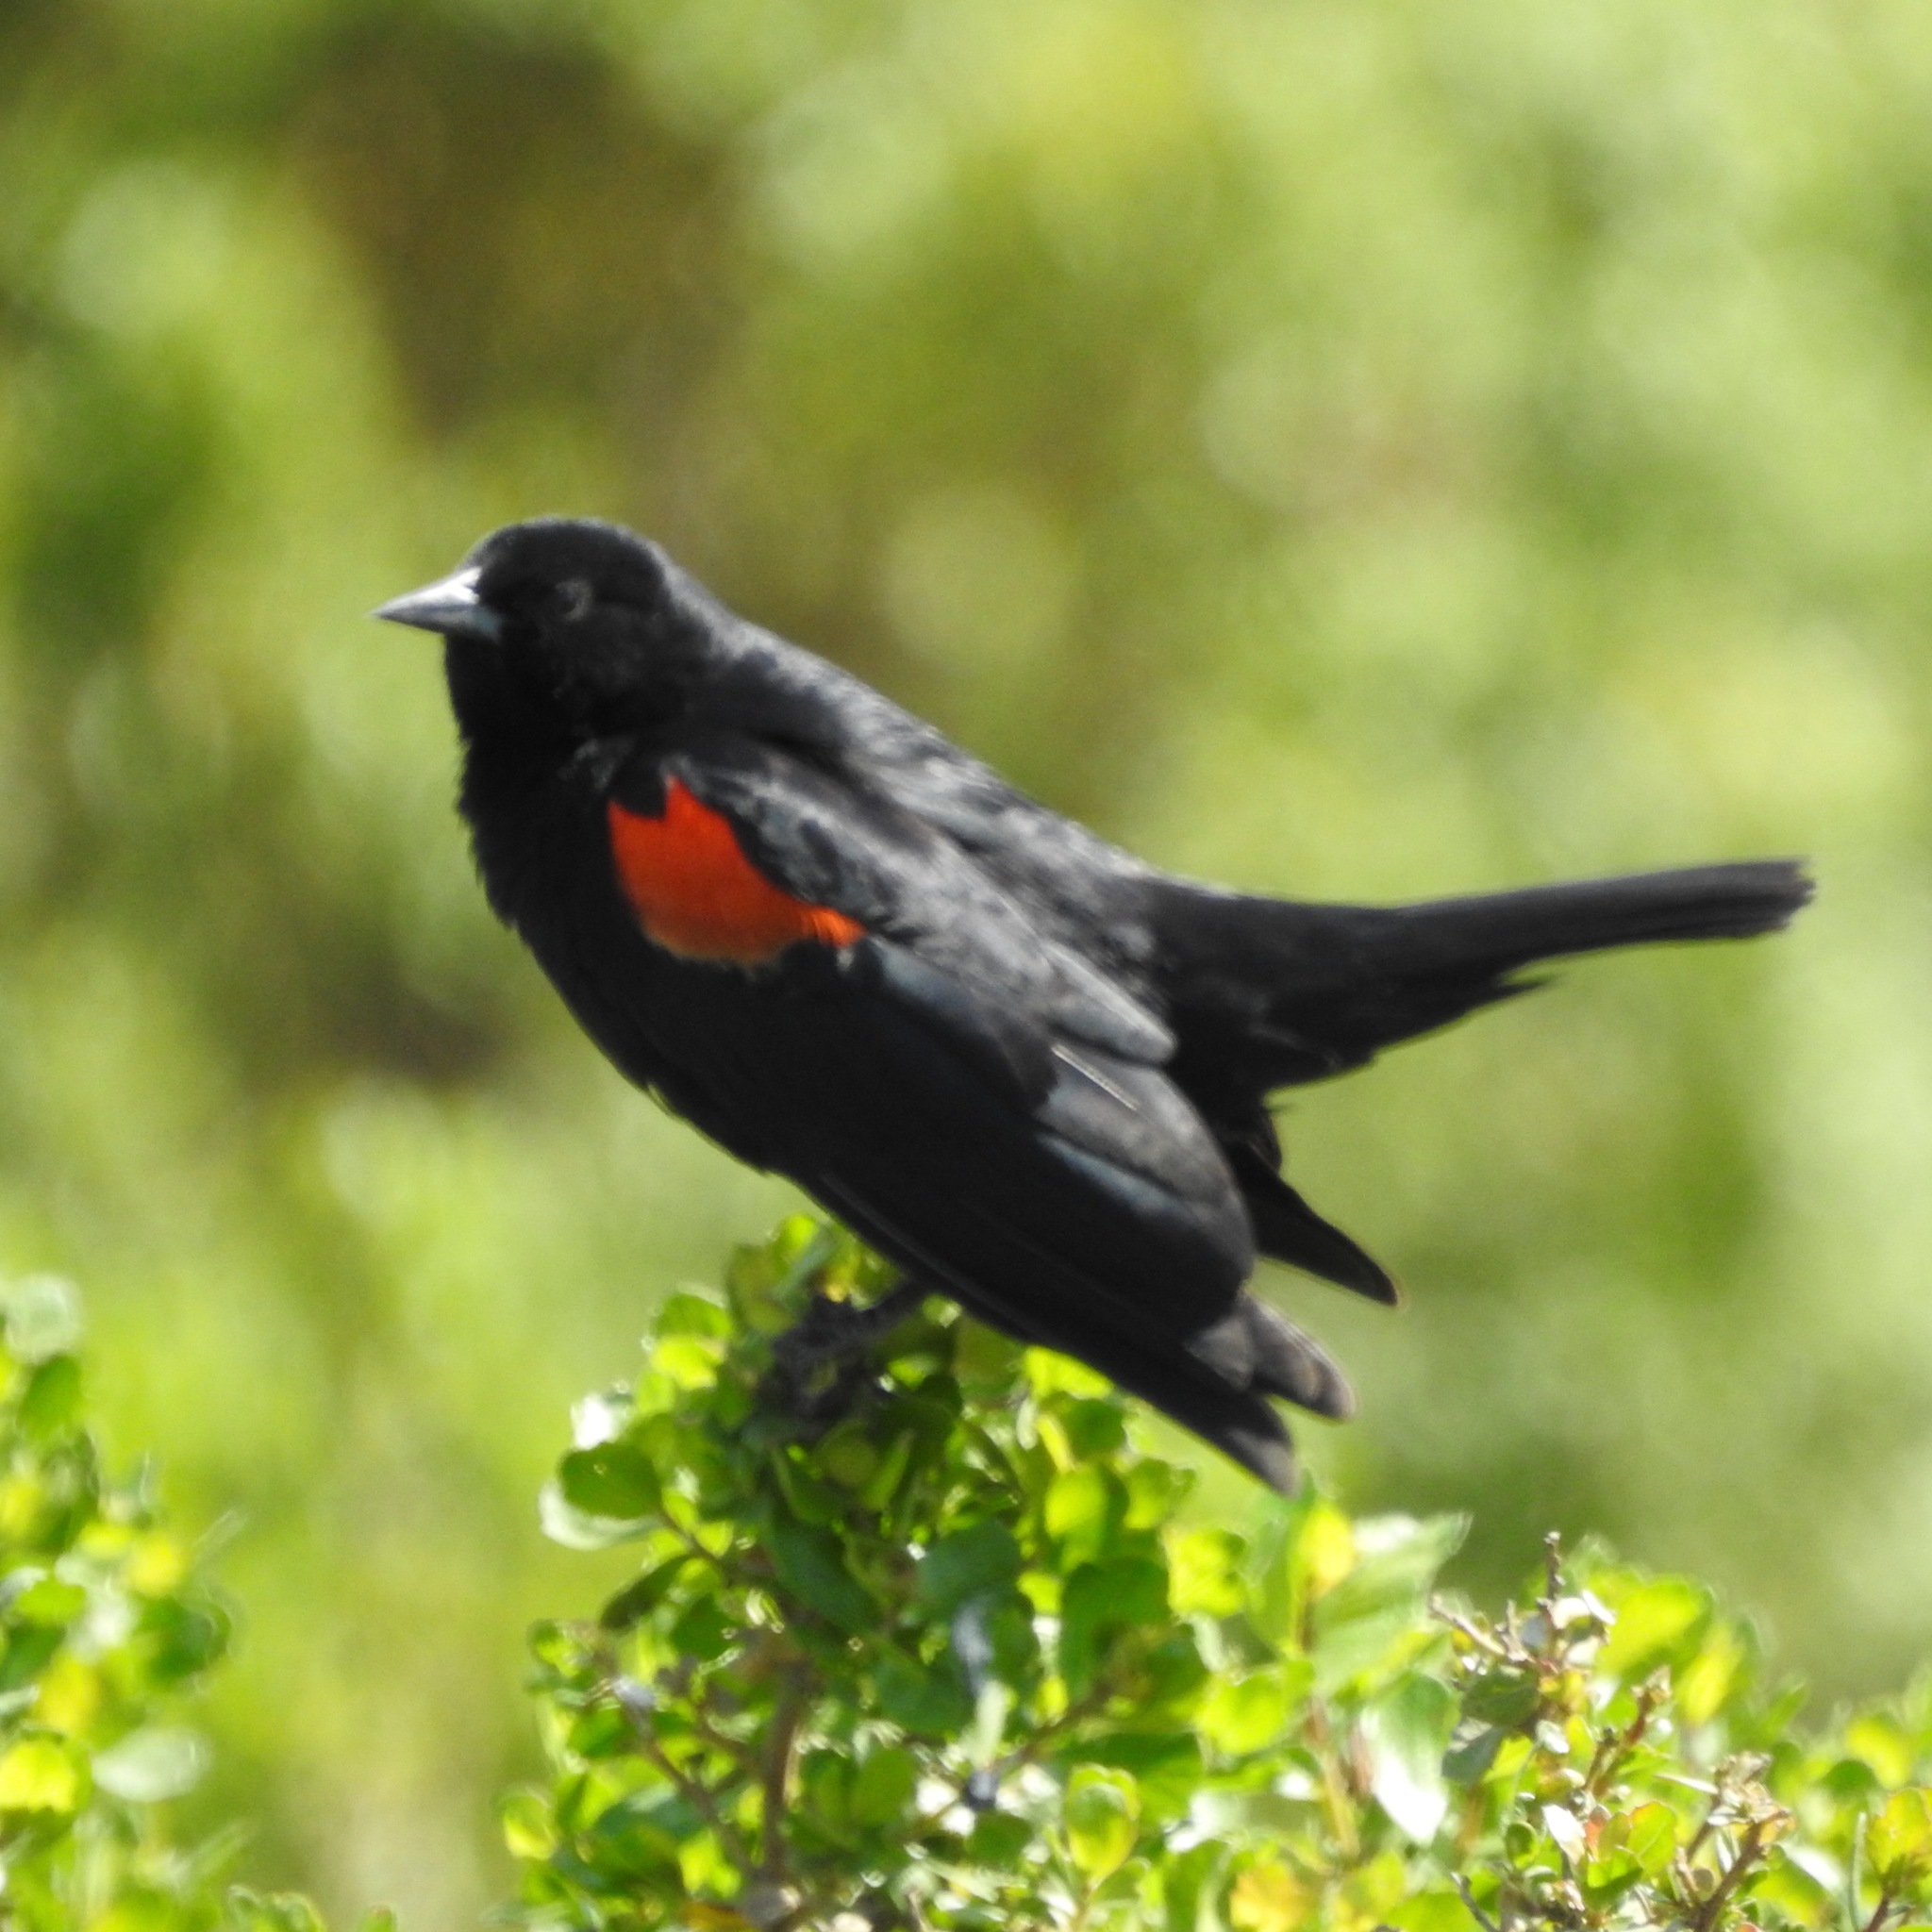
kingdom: Animalia
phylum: Chordata
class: Aves
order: Passeriformes
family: Icteridae
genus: Agelaius
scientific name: Agelaius phoeniceus
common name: Red-winged blackbird
